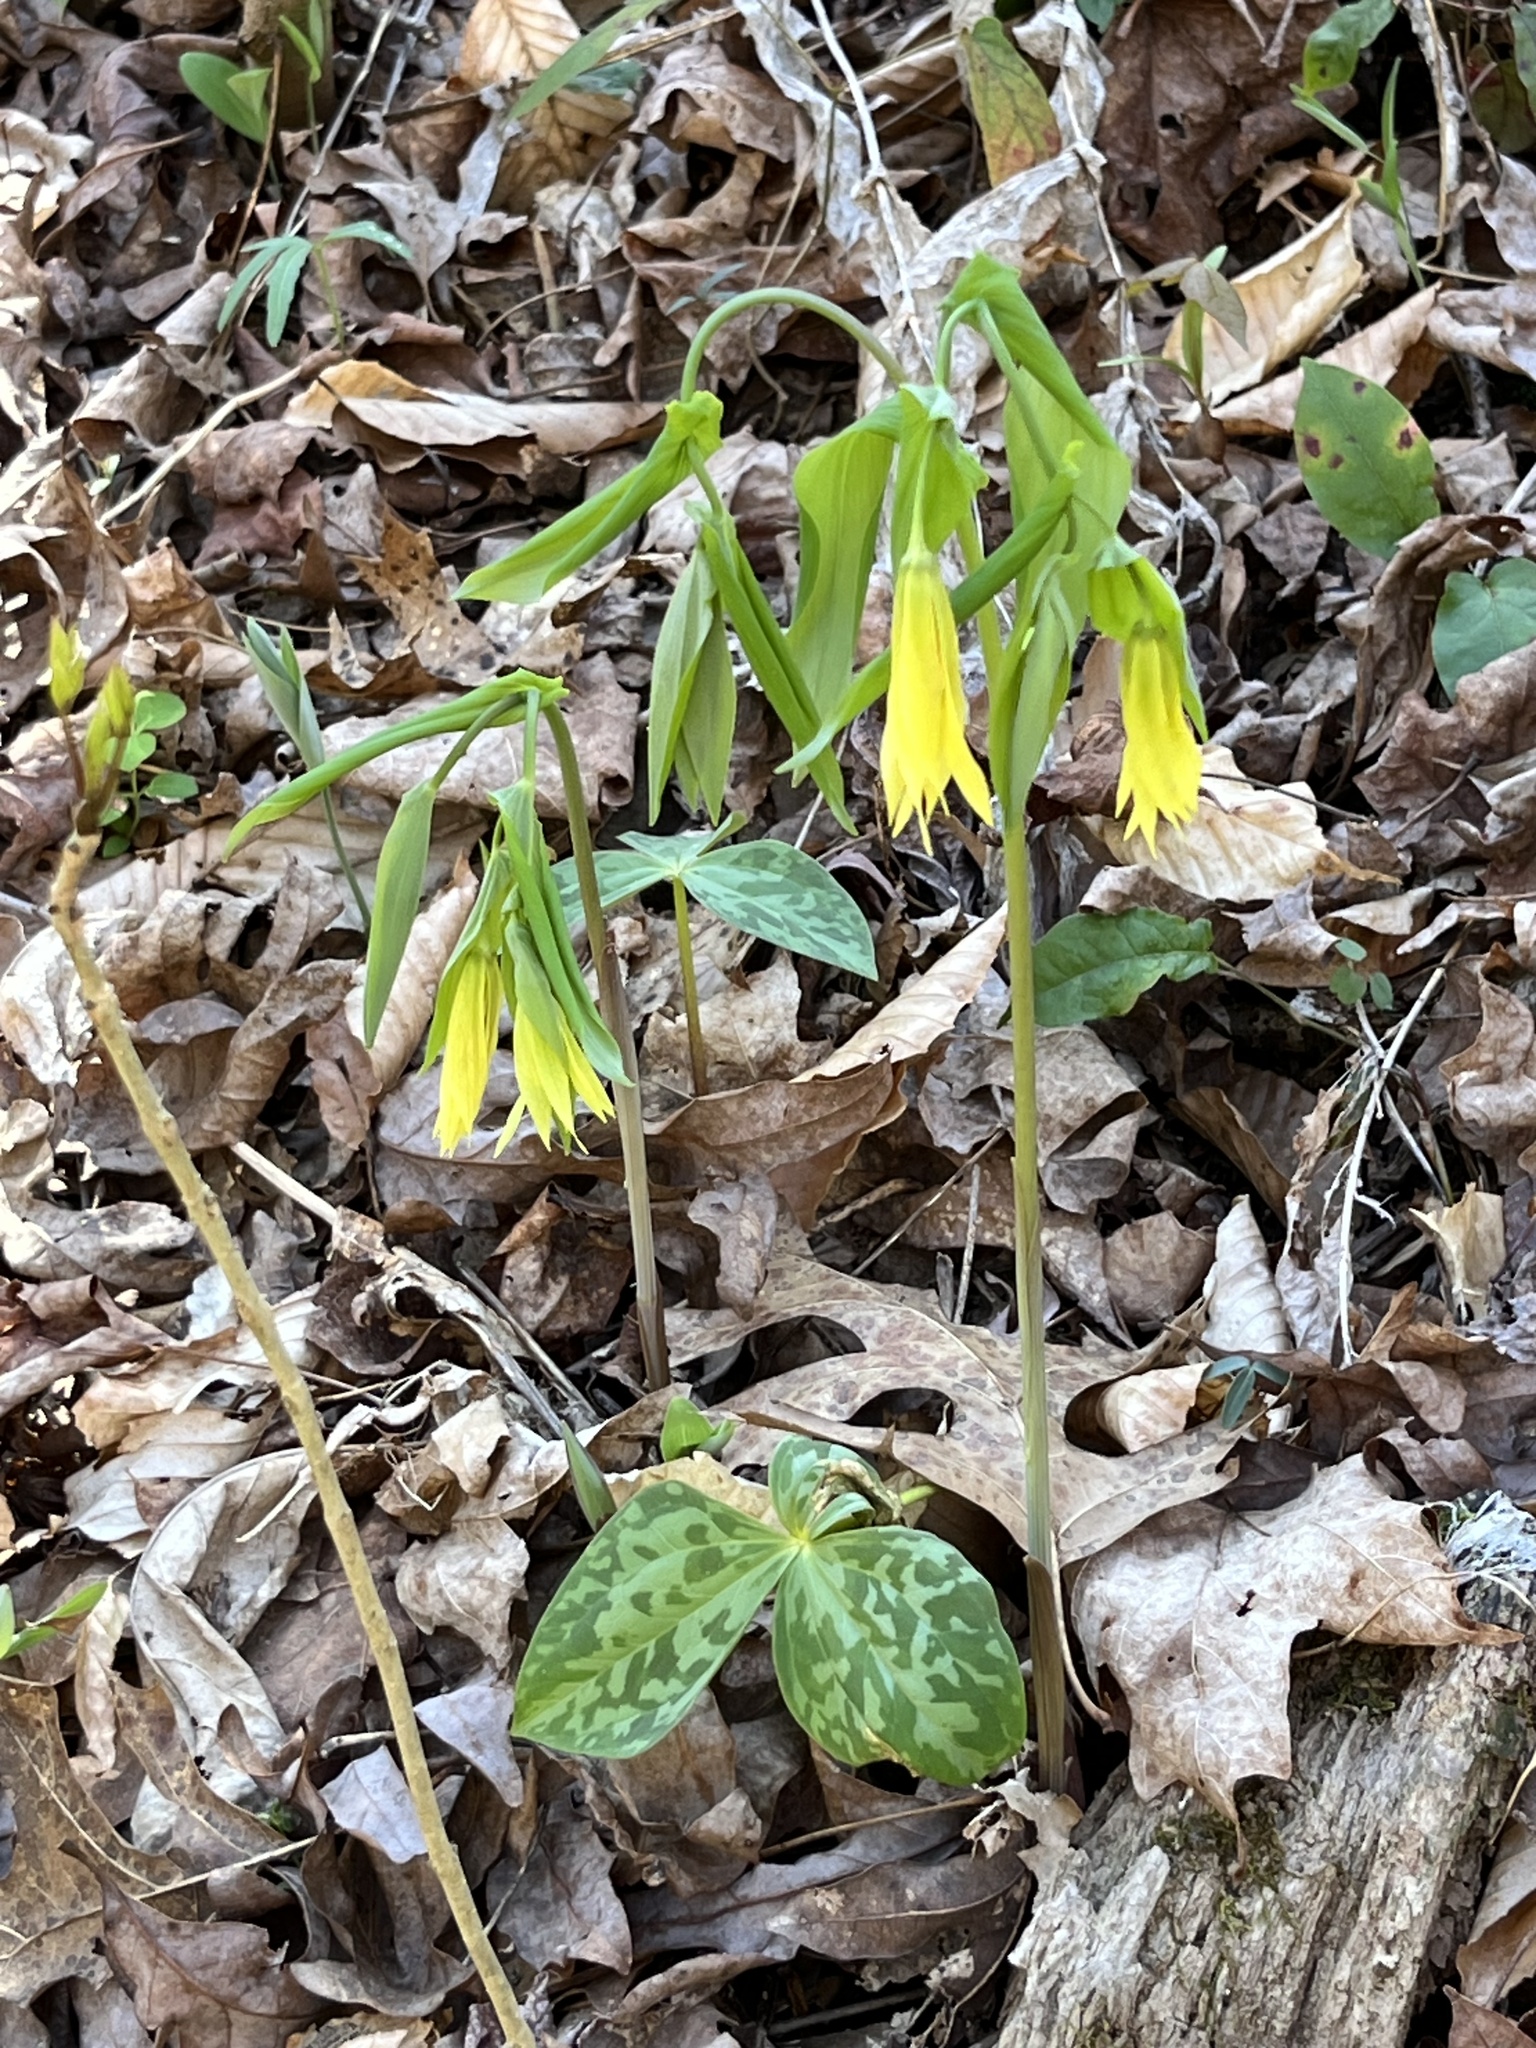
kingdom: Plantae
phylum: Tracheophyta
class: Liliopsida
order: Liliales
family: Colchicaceae
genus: Uvularia
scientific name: Uvularia grandiflora
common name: Bellwort
